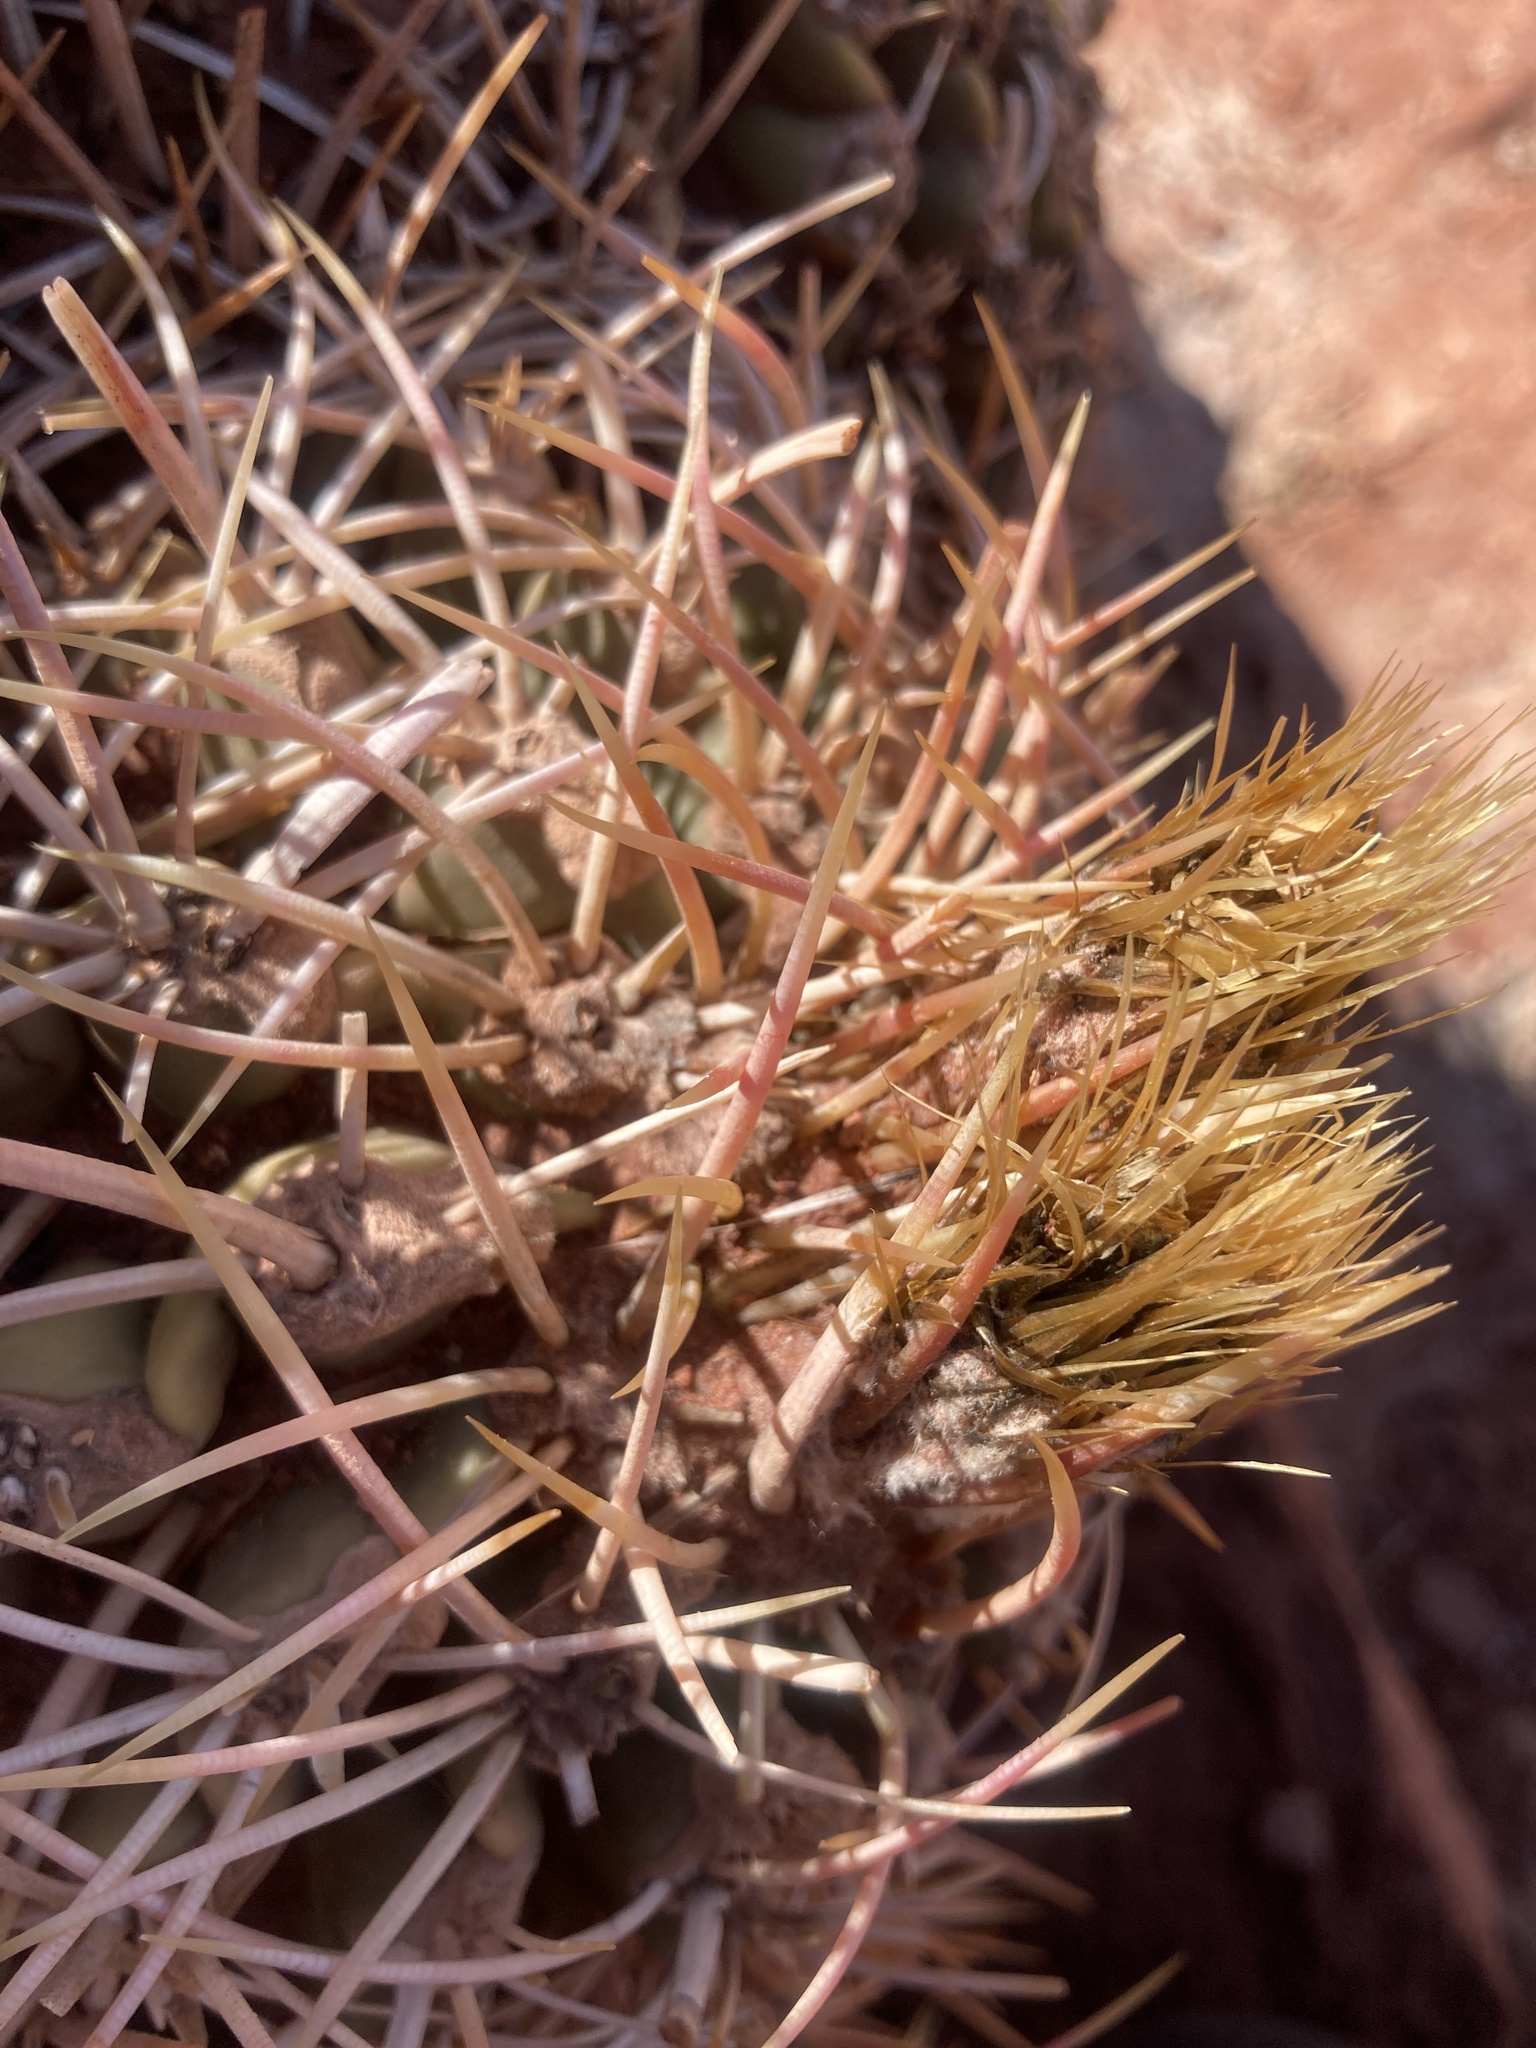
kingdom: Plantae
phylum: Tracheophyta
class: Magnoliopsida
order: Caryophyllales
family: Cactaceae
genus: Echinocactus
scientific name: Echinocactus polycephalus
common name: Cottontop cactus
